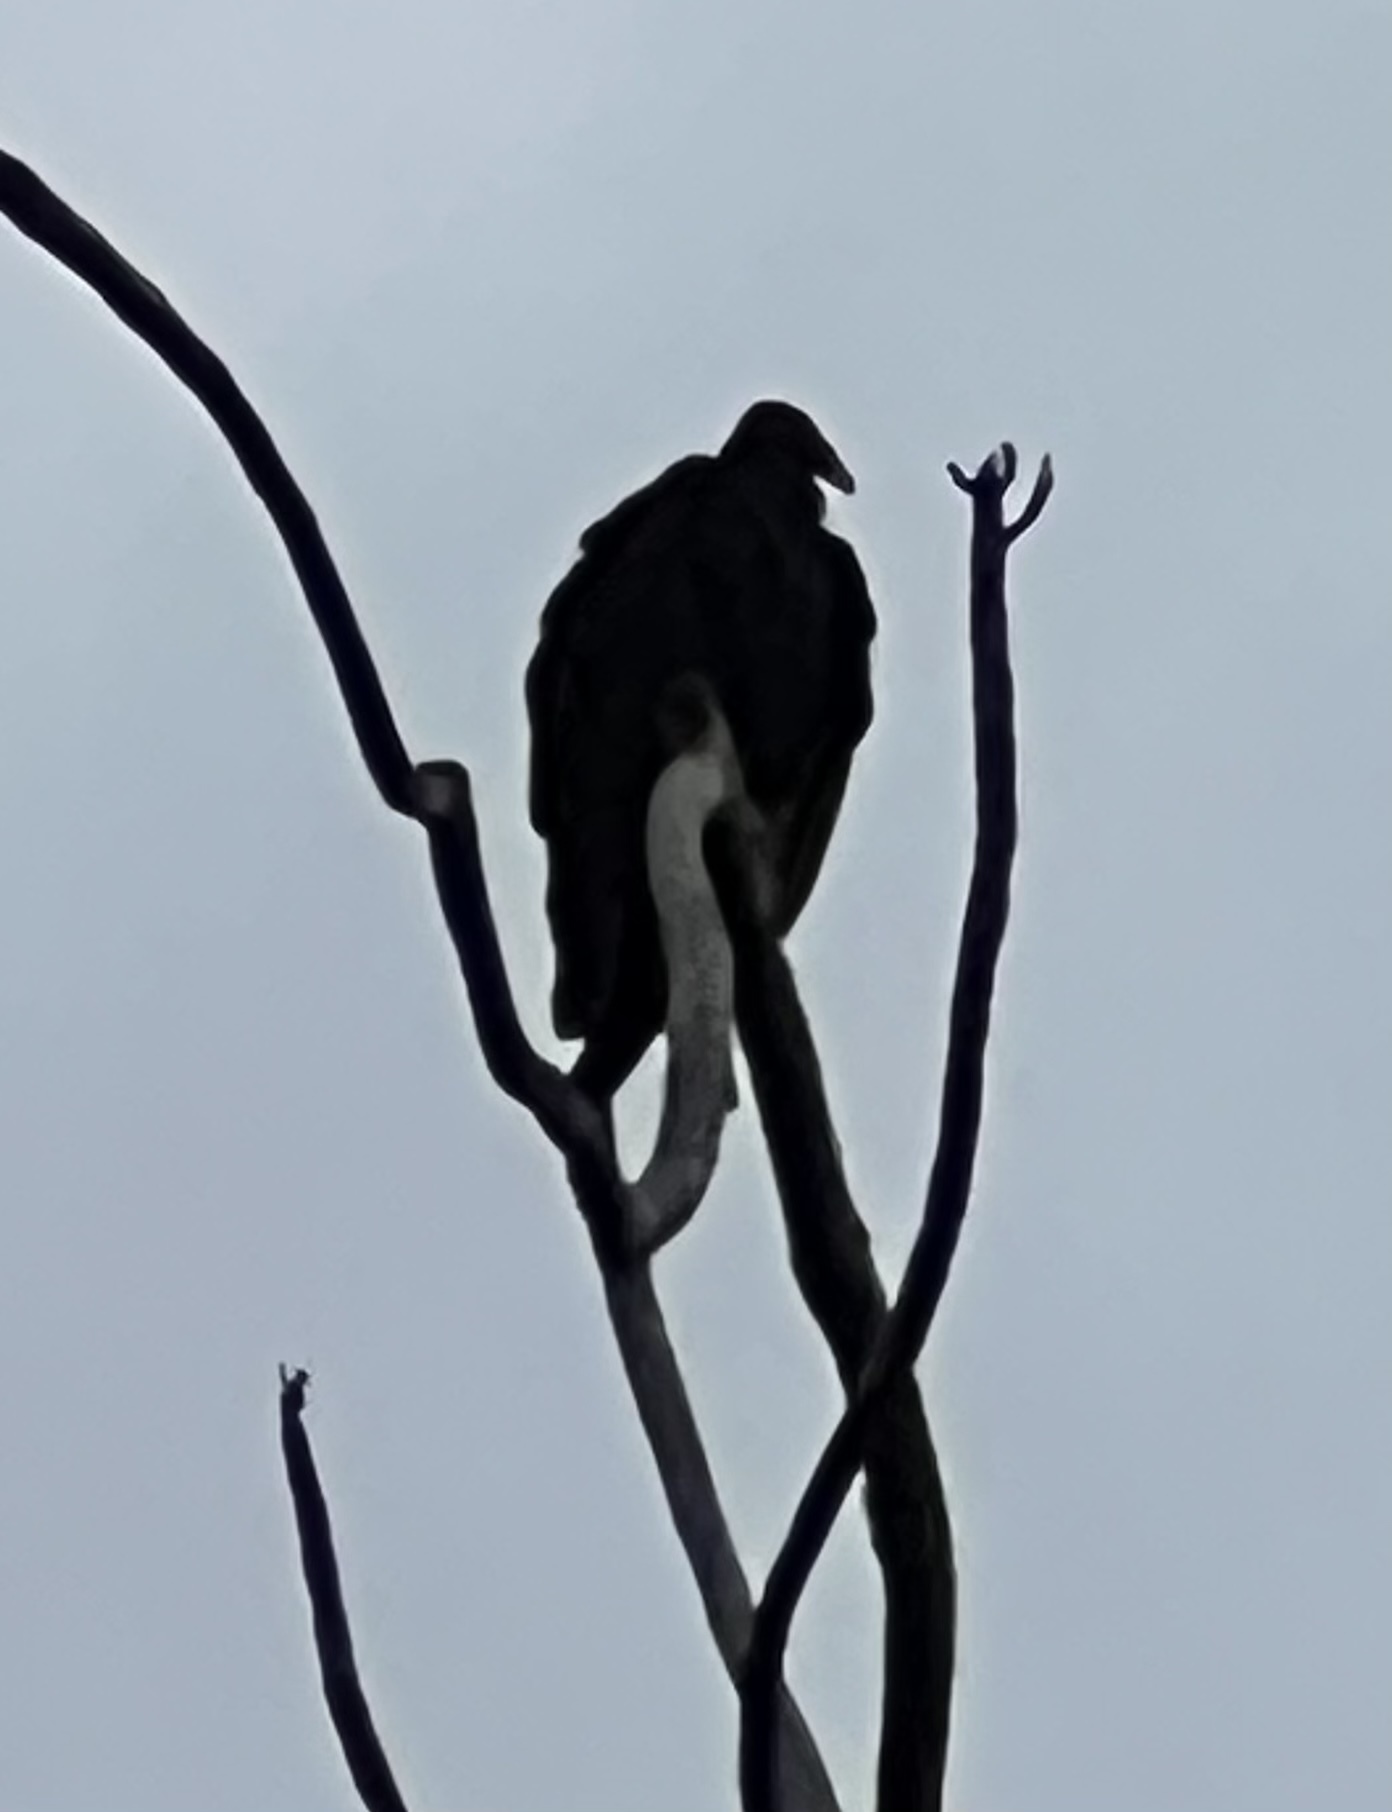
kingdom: Animalia
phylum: Chordata
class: Aves
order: Accipitriformes
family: Cathartidae
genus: Cathartes
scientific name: Cathartes aura
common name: Turkey vulture
